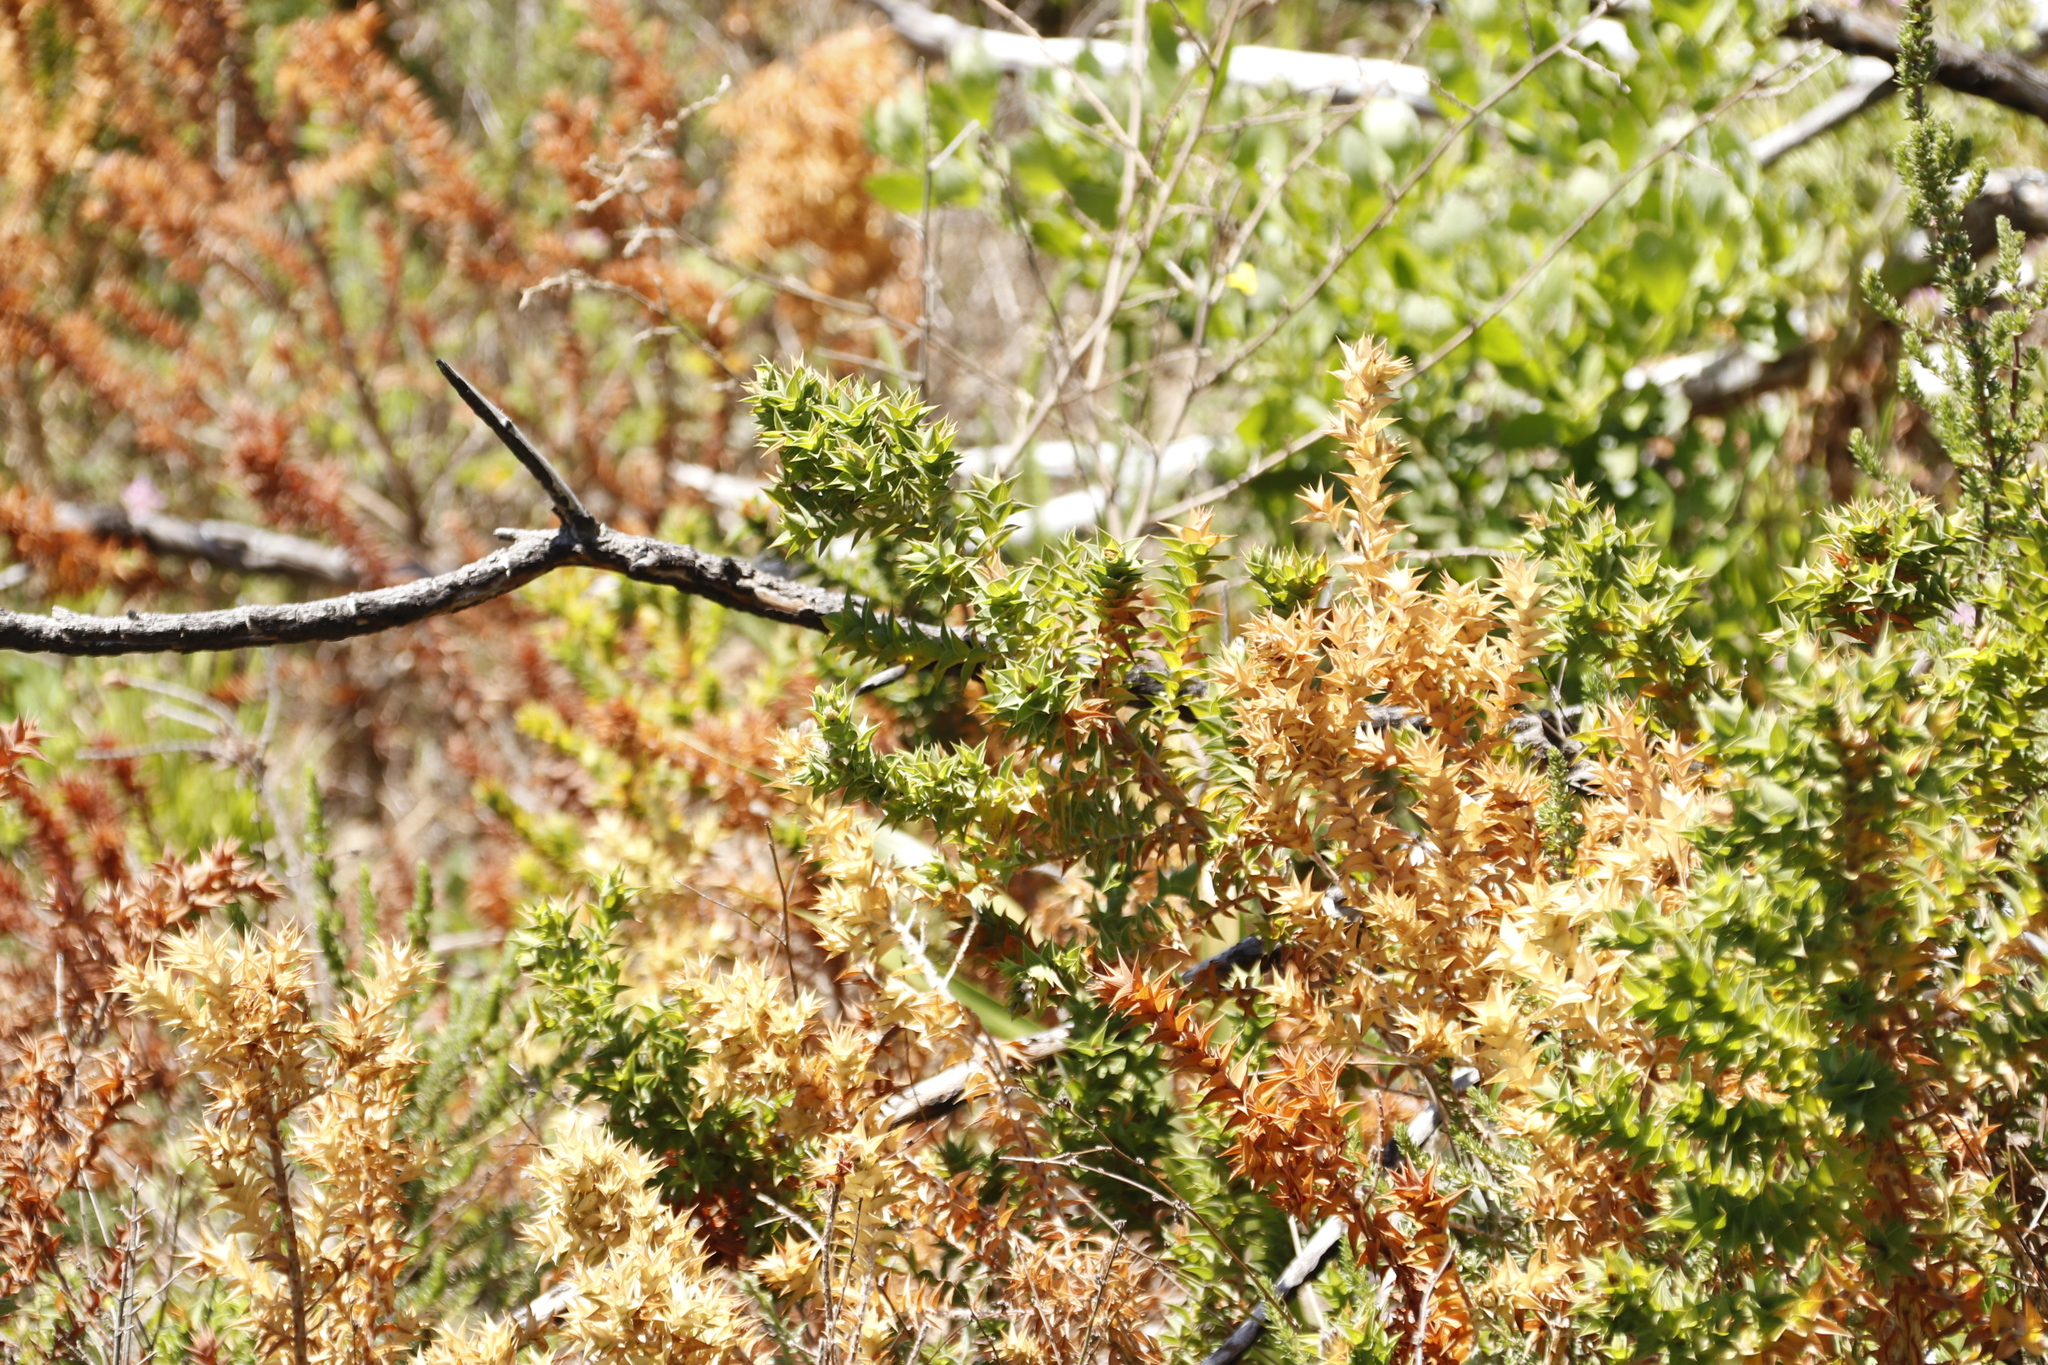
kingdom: Plantae
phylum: Tracheophyta
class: Magnoliopsida
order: Fabales
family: Fabaceae
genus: Aspalathus
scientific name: Aspalathus cordata
